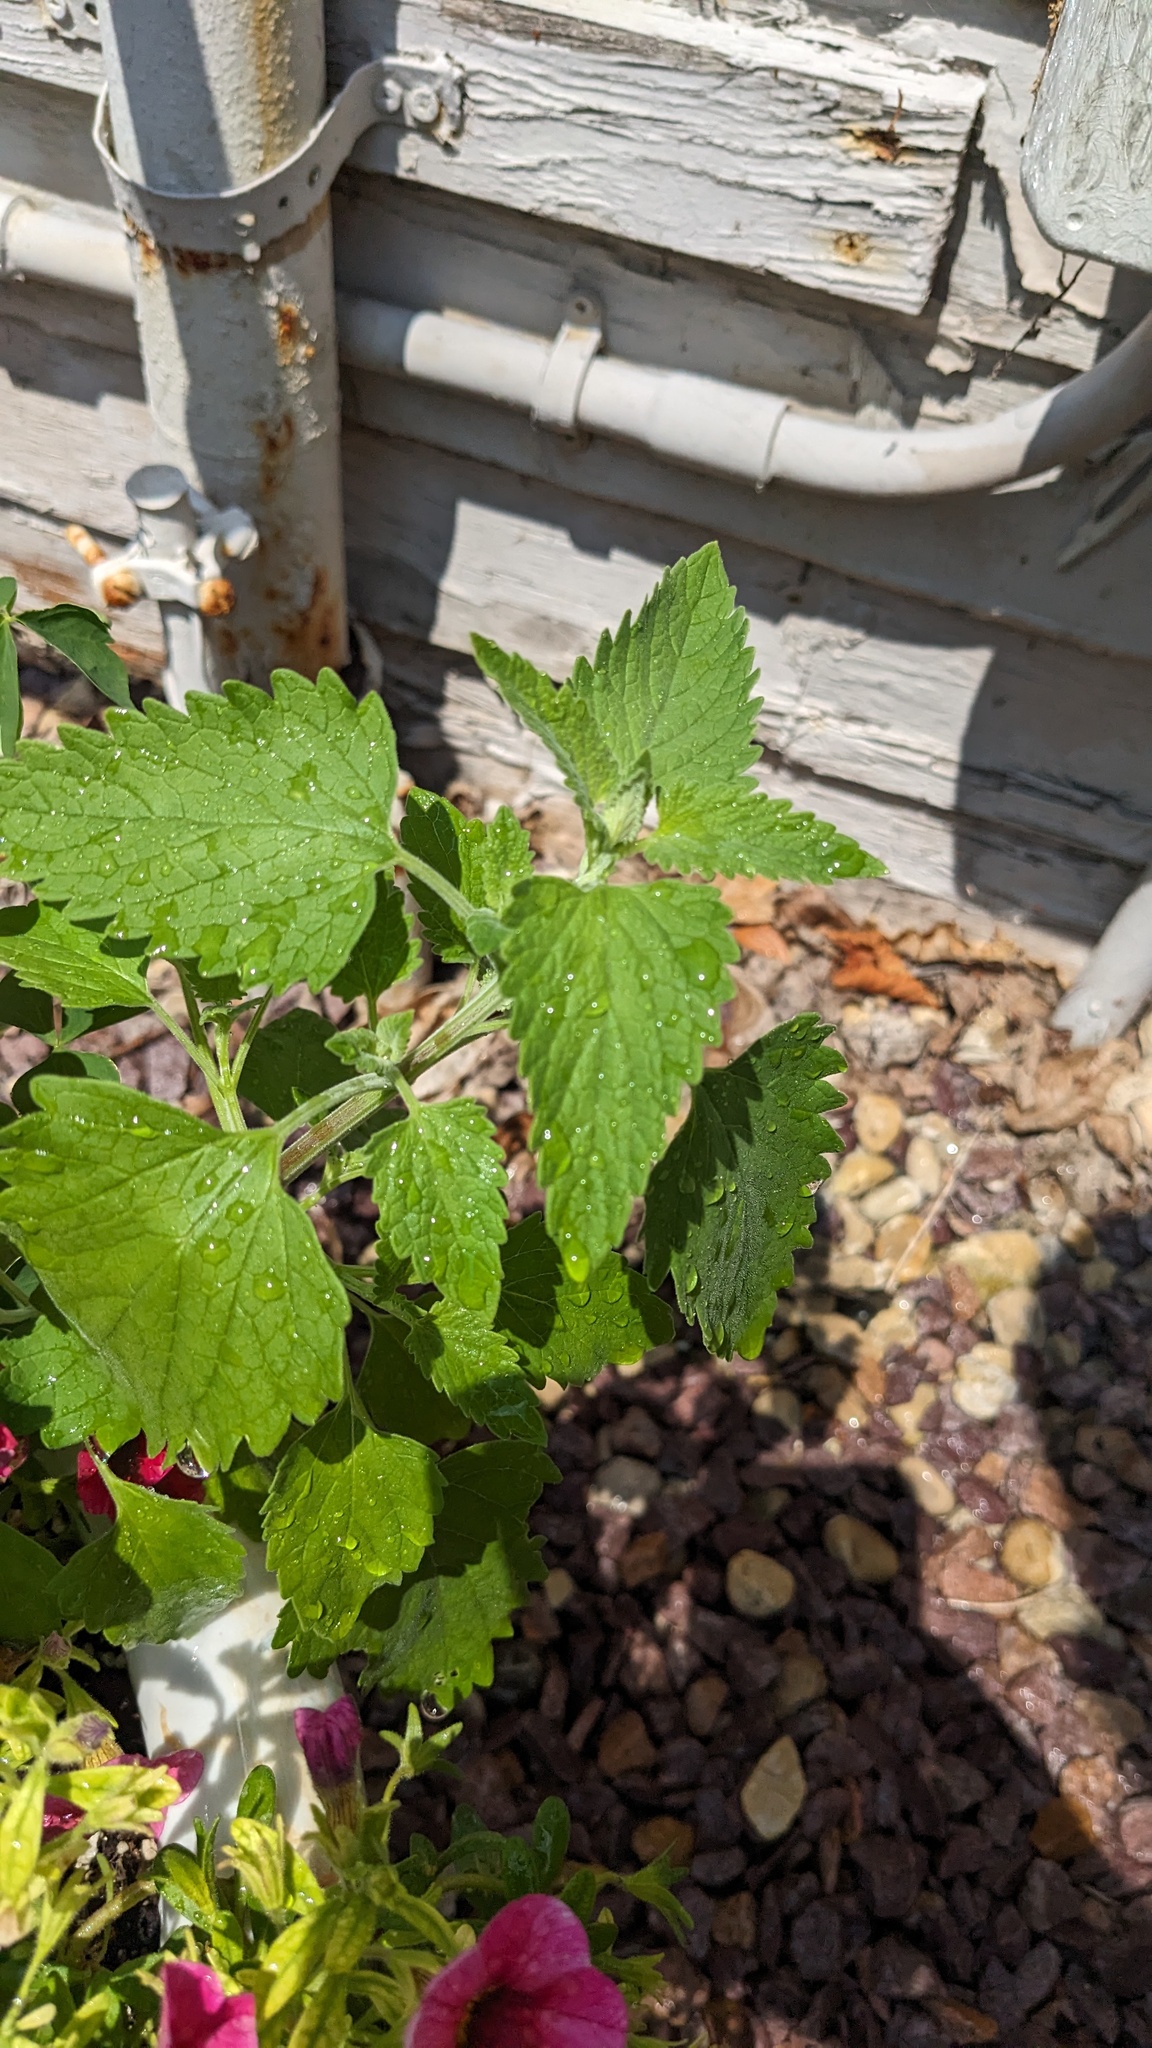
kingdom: Plantae
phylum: Tracheophyta
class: Magnoliopsida
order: Lamiales
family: Lamiaceae
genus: Nepeta
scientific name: Nepeta cataria
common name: Catnip
